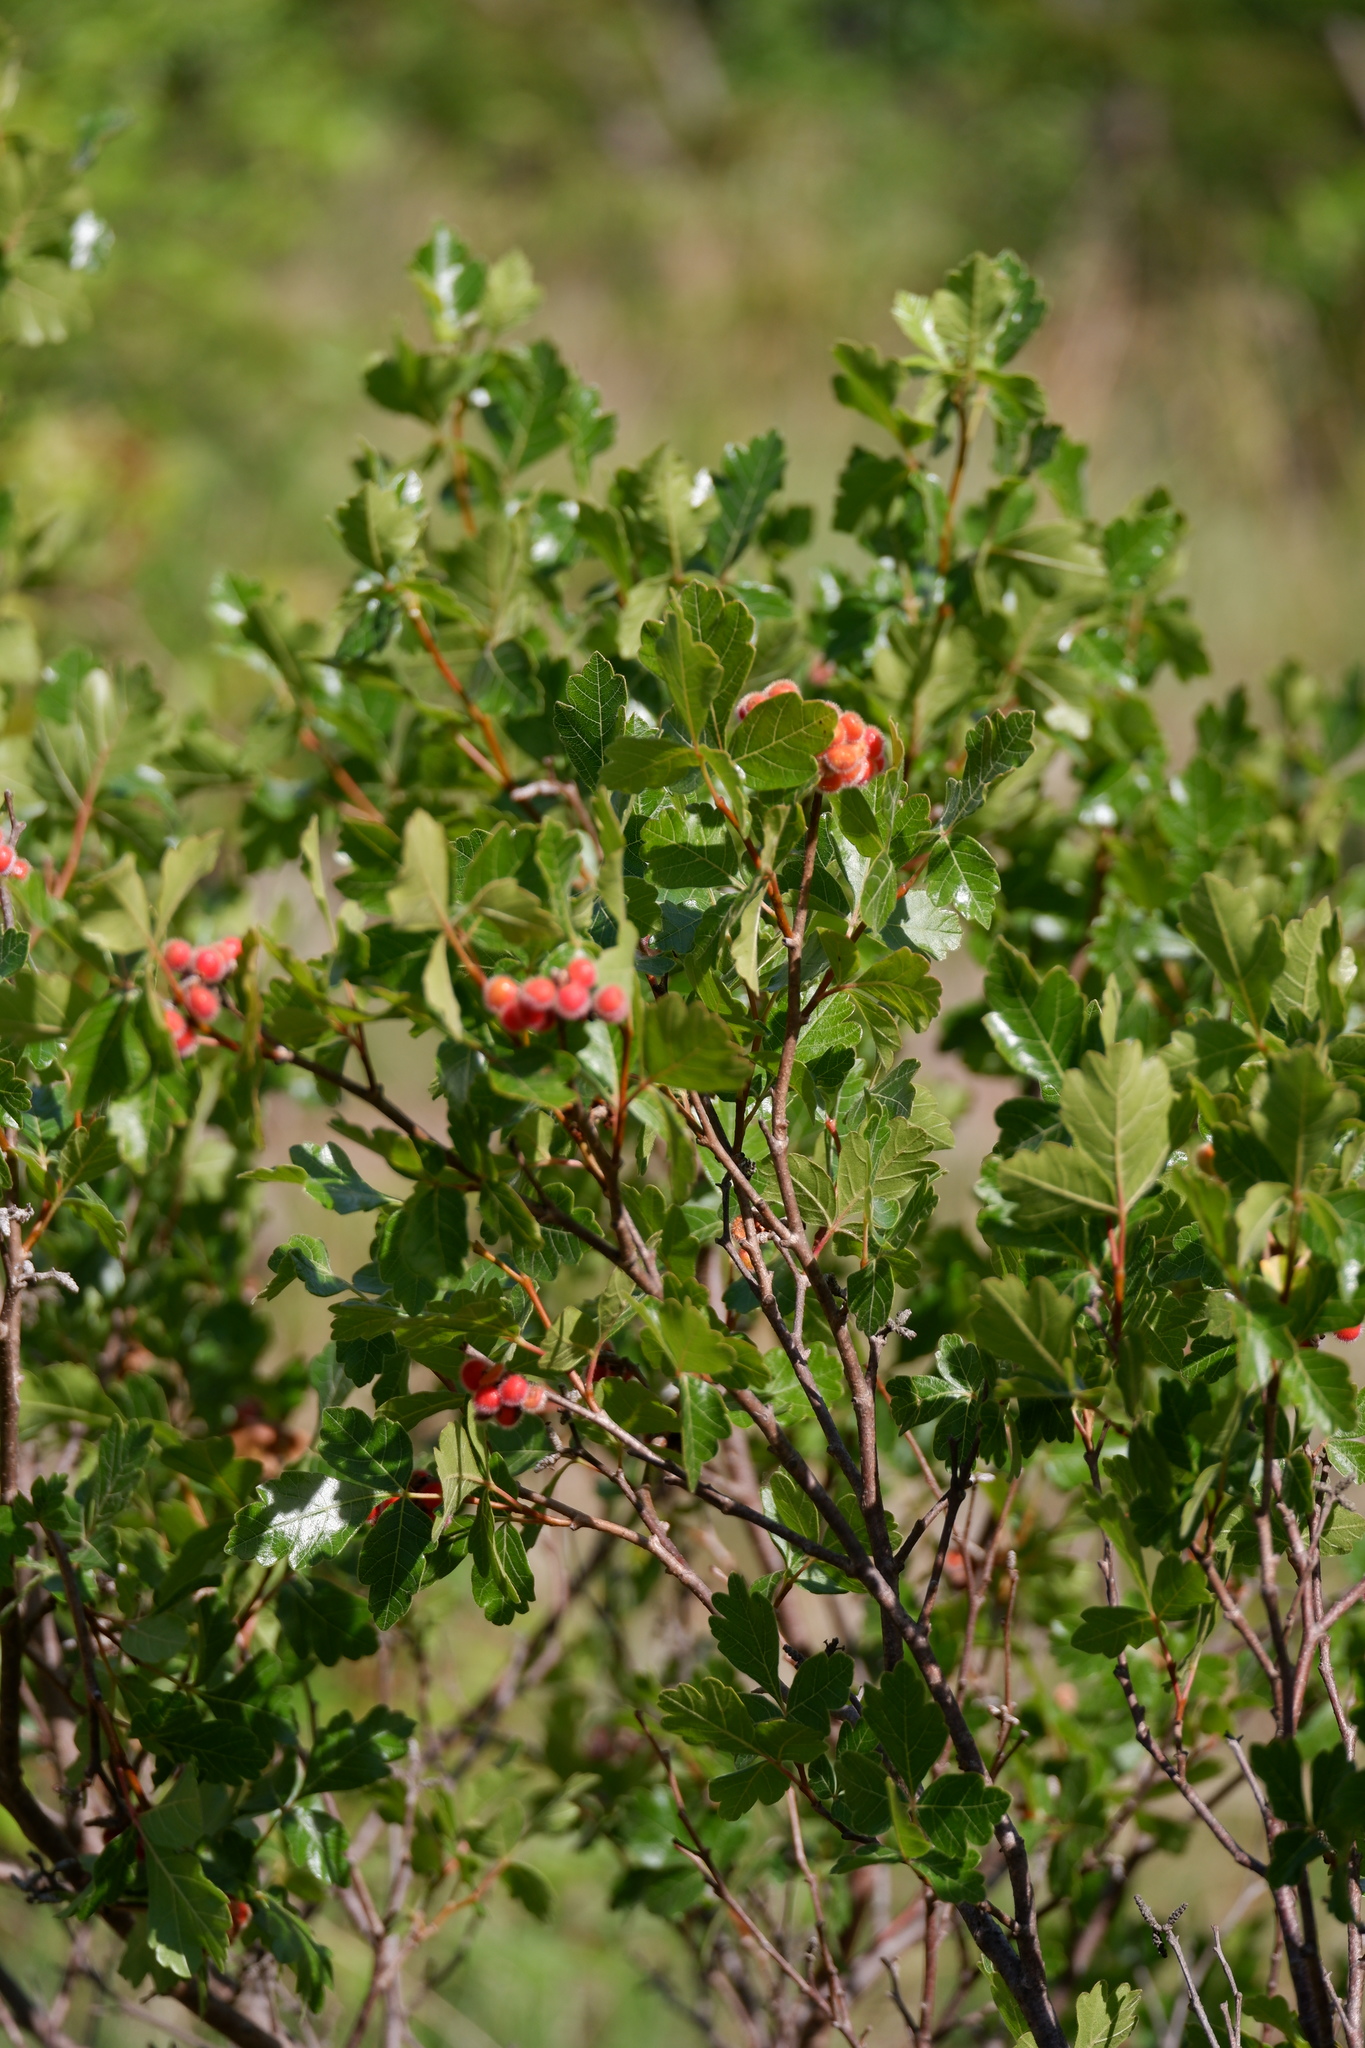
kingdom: Plantae
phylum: Tracheophyta
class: Magnoliopsida
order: Sapindales
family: Anacardiaceae
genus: Rhus
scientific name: Rhus aromatica
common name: Aromatic sumac
